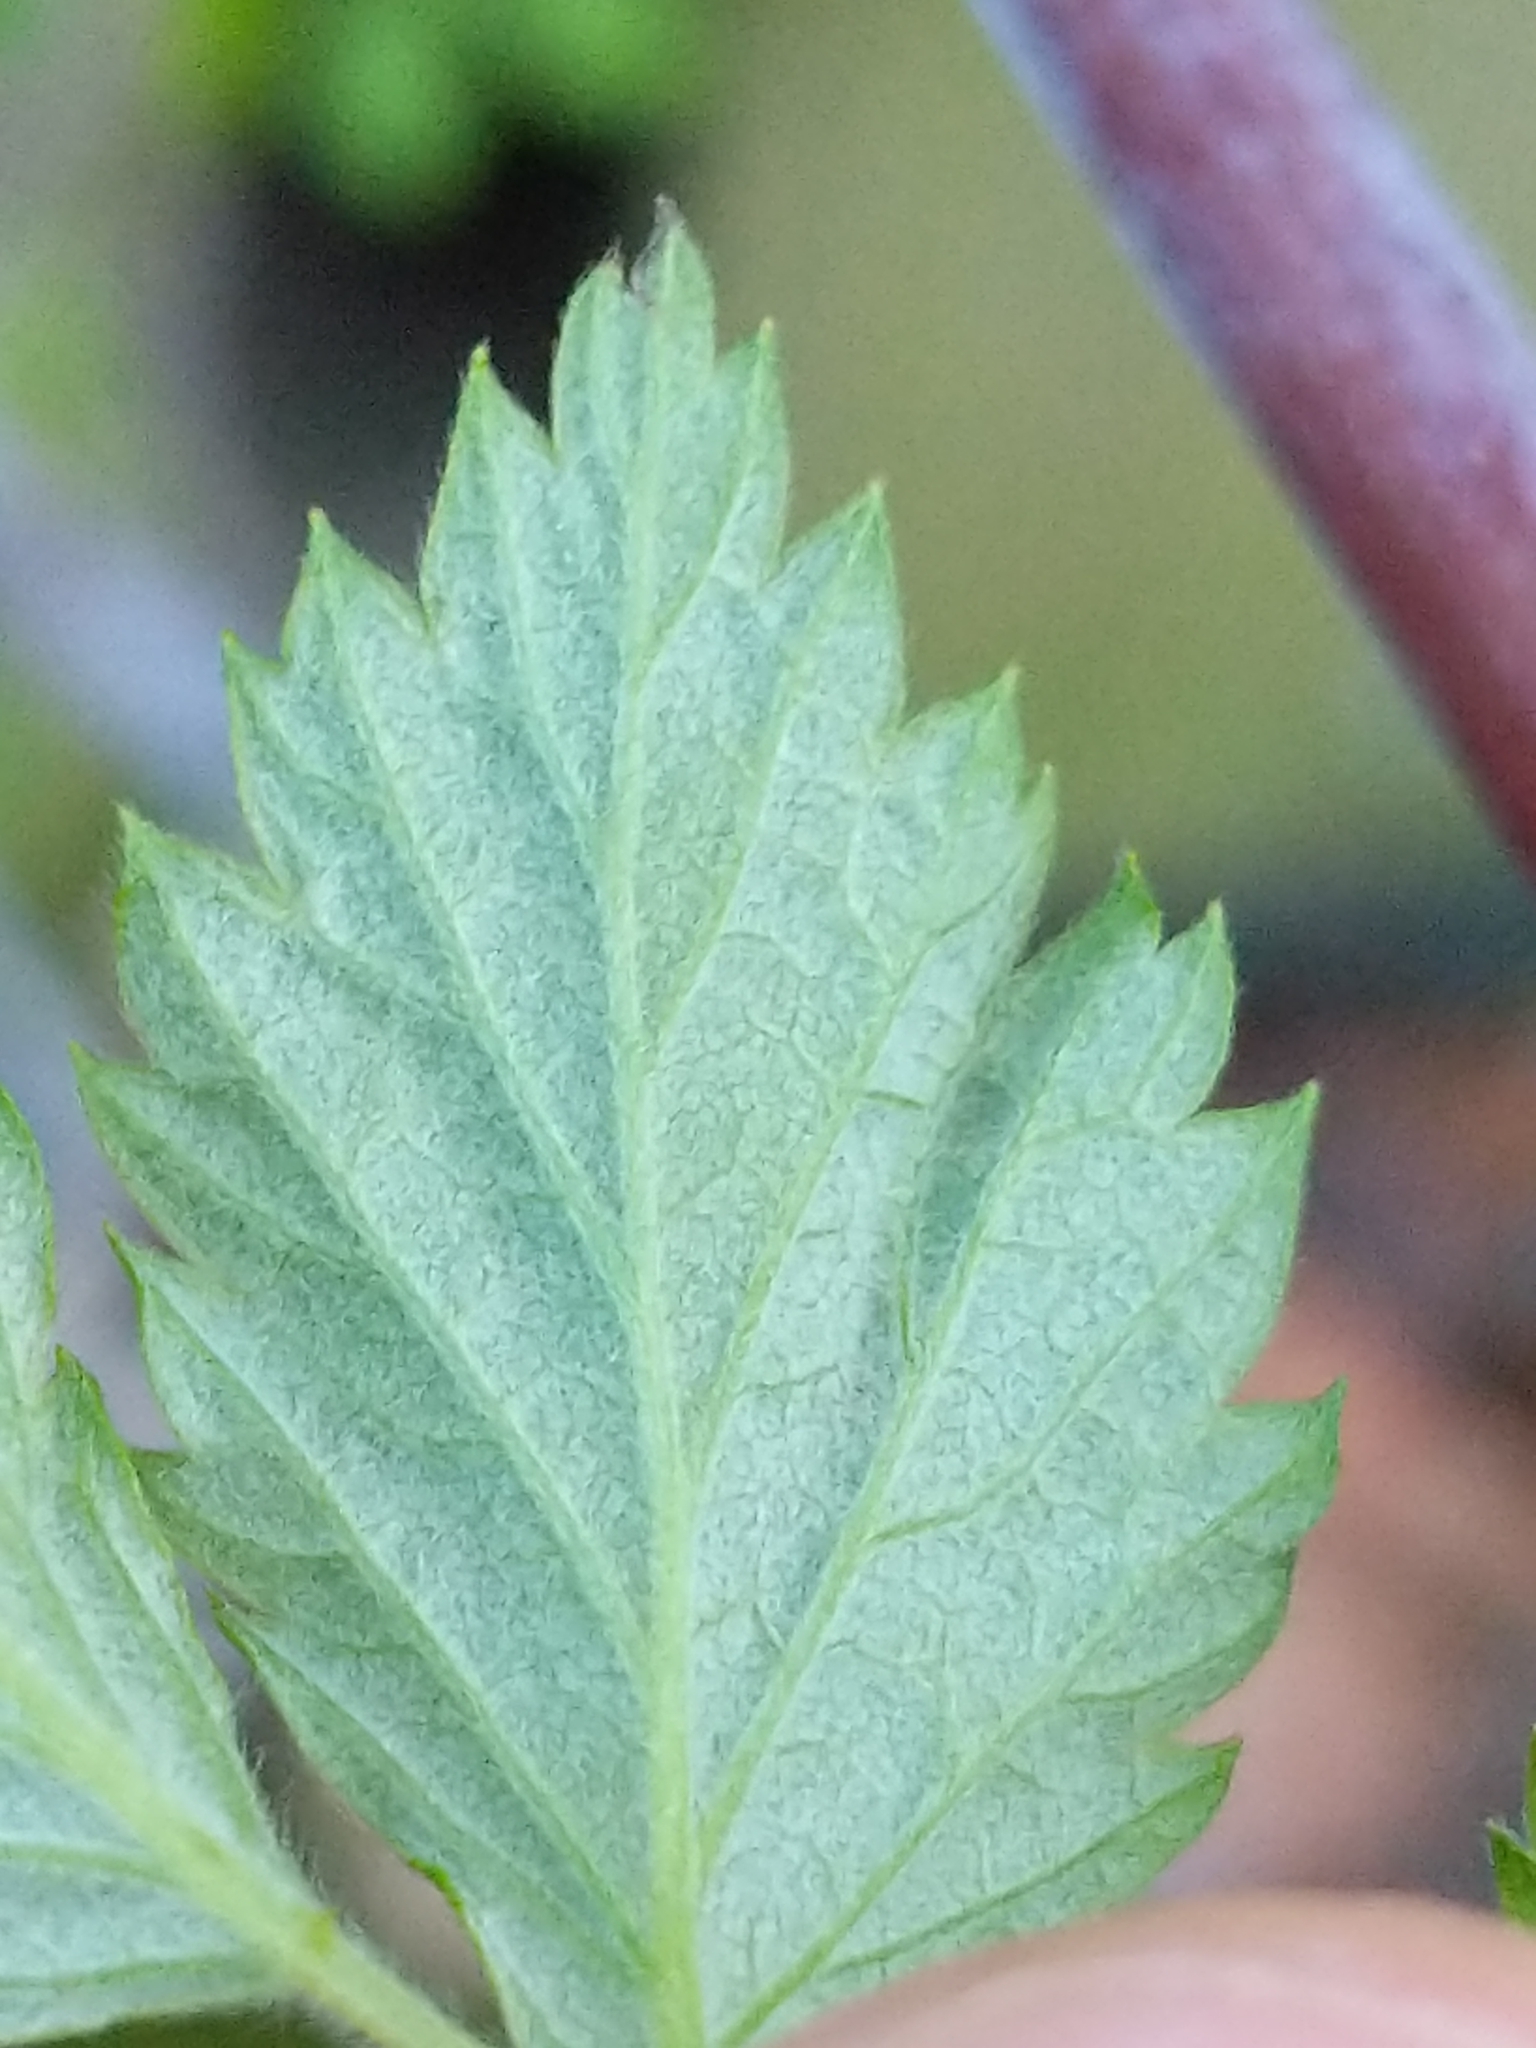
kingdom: Plantae
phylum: Tracheophyta
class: Magnoliopsida
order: Rosales
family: Rosaceae
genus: Rubus
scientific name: Rubus occidentalis
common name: Black raspberry
